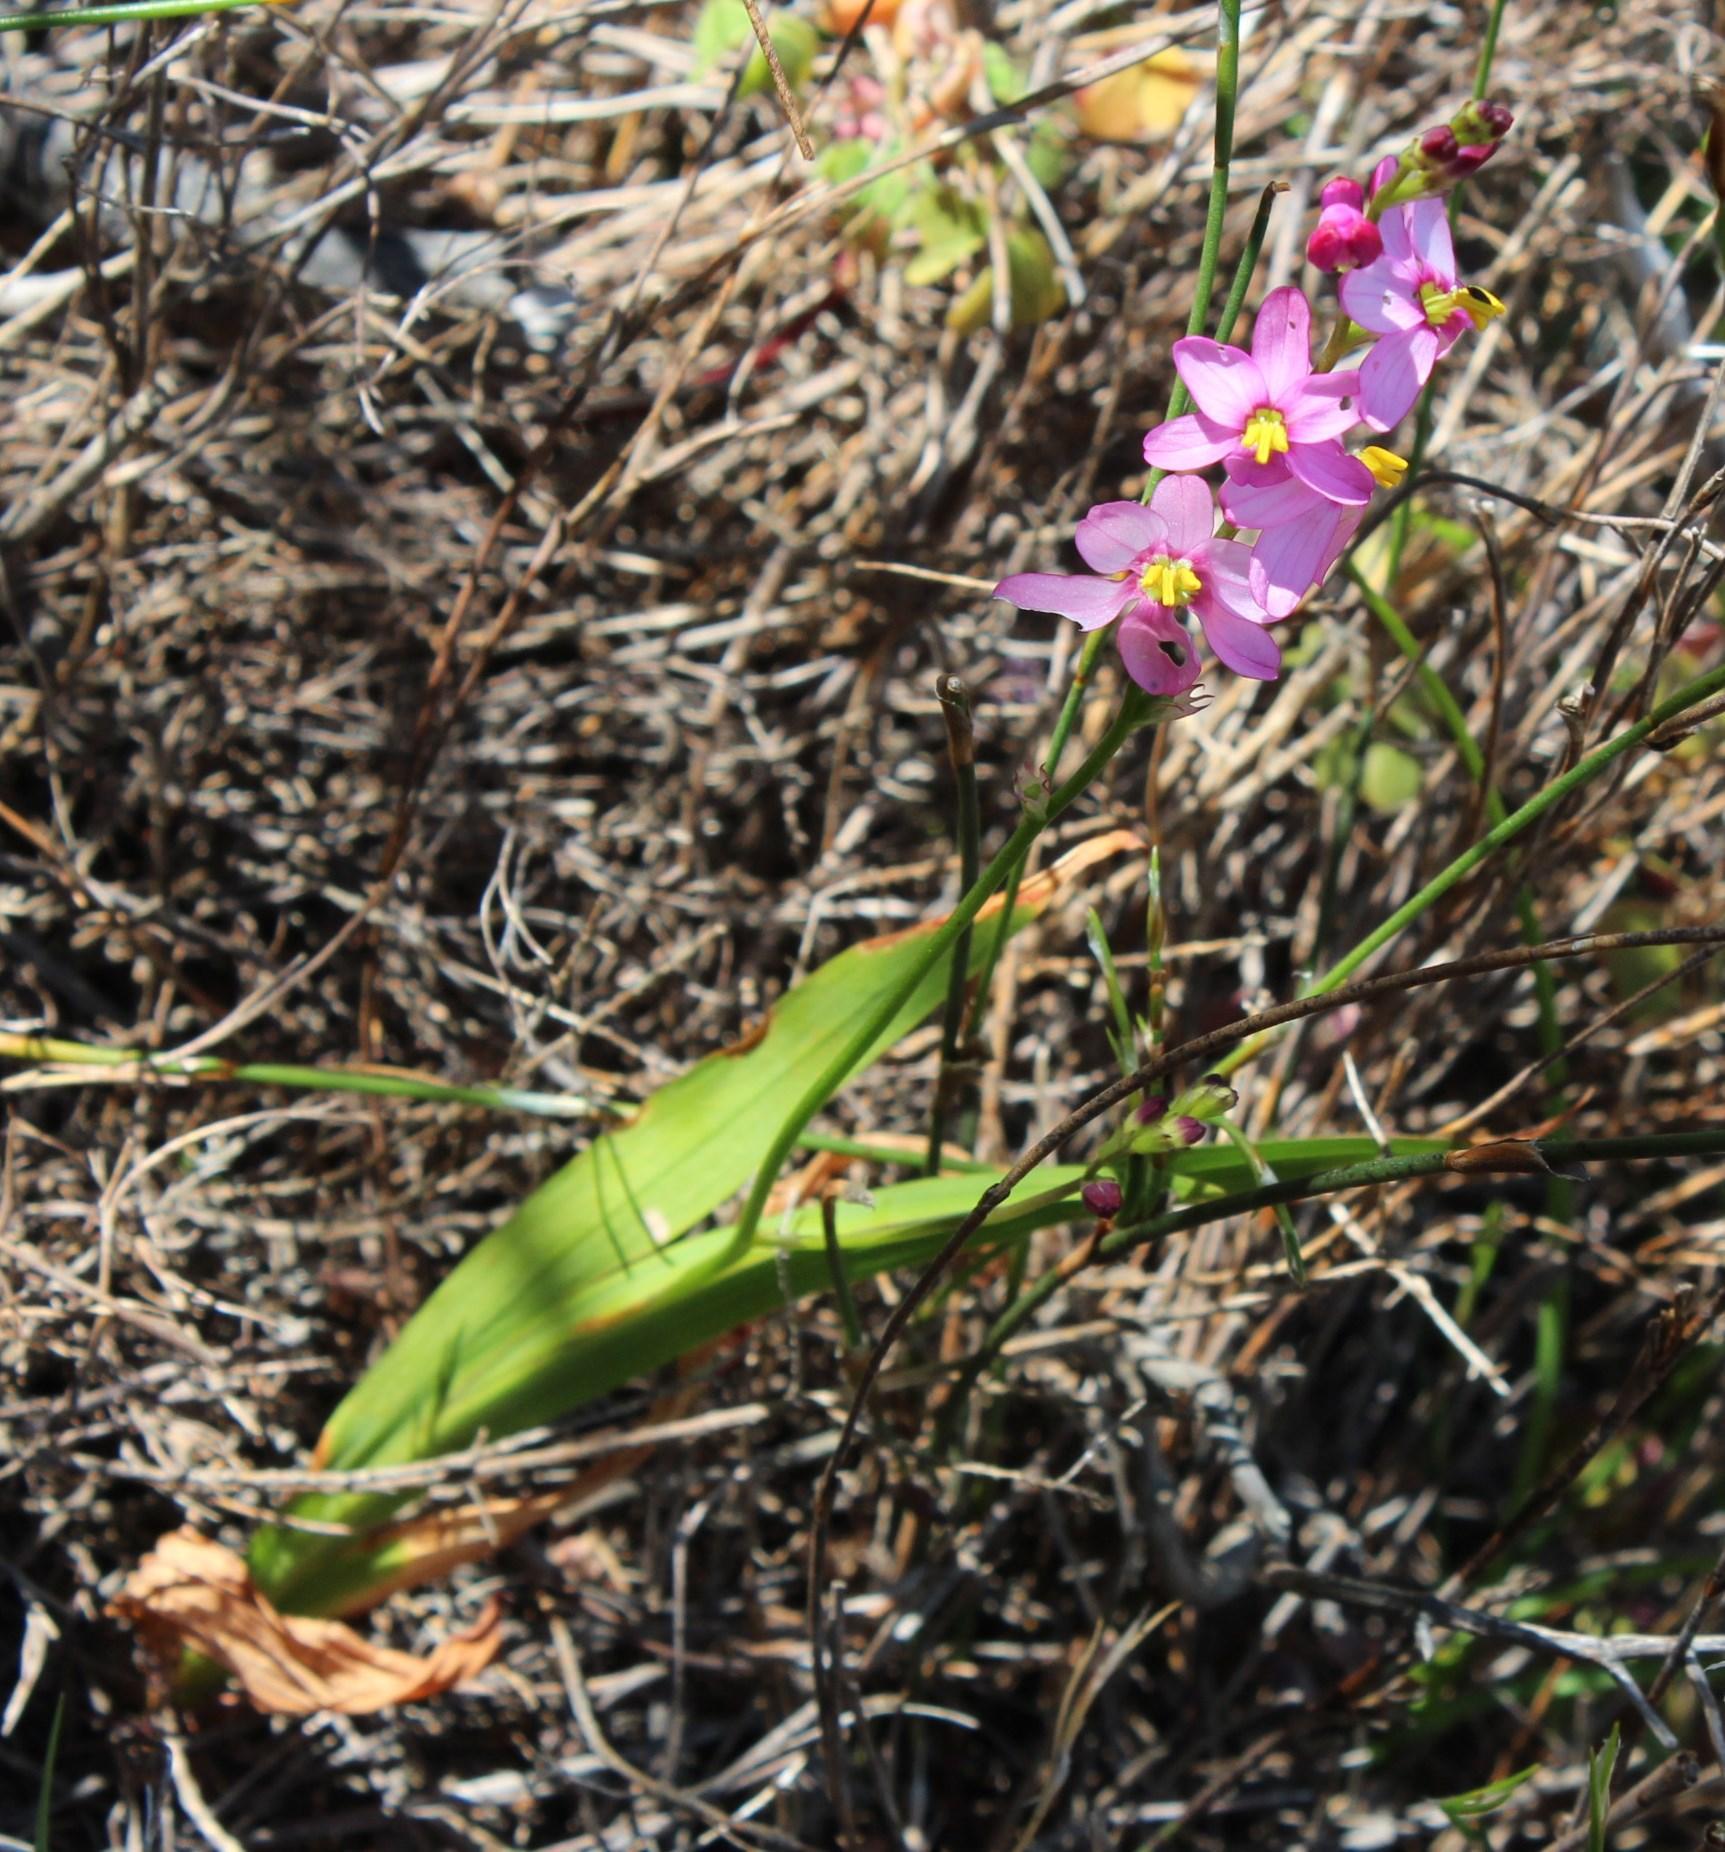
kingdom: Plantae
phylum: Tracheophyta
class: Liliopsida
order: Asparagales
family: Iridaceae
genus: Ixia
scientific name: Ixia scillaris
